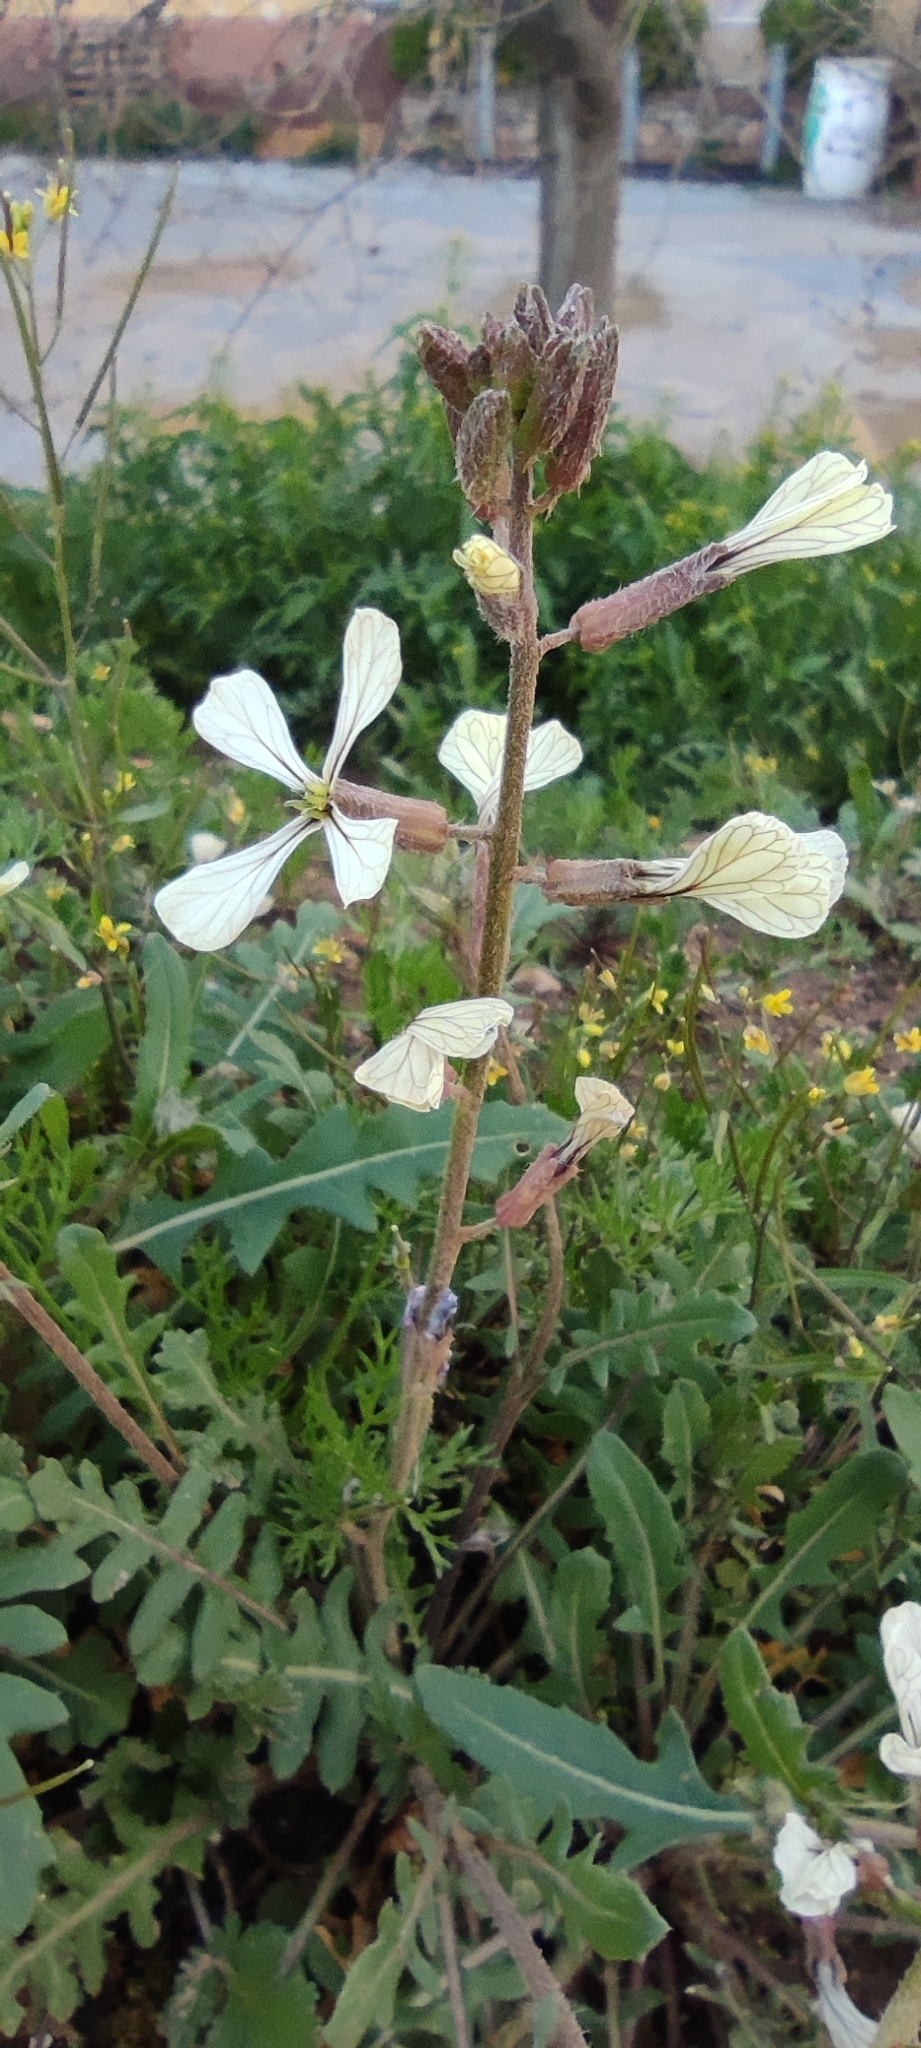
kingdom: Plantae
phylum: Tracheophyta
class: Magnoliopsida
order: Brassicales
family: Brassicaceae
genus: Eruca
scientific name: Eruca vesicaria
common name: Garden rocket
